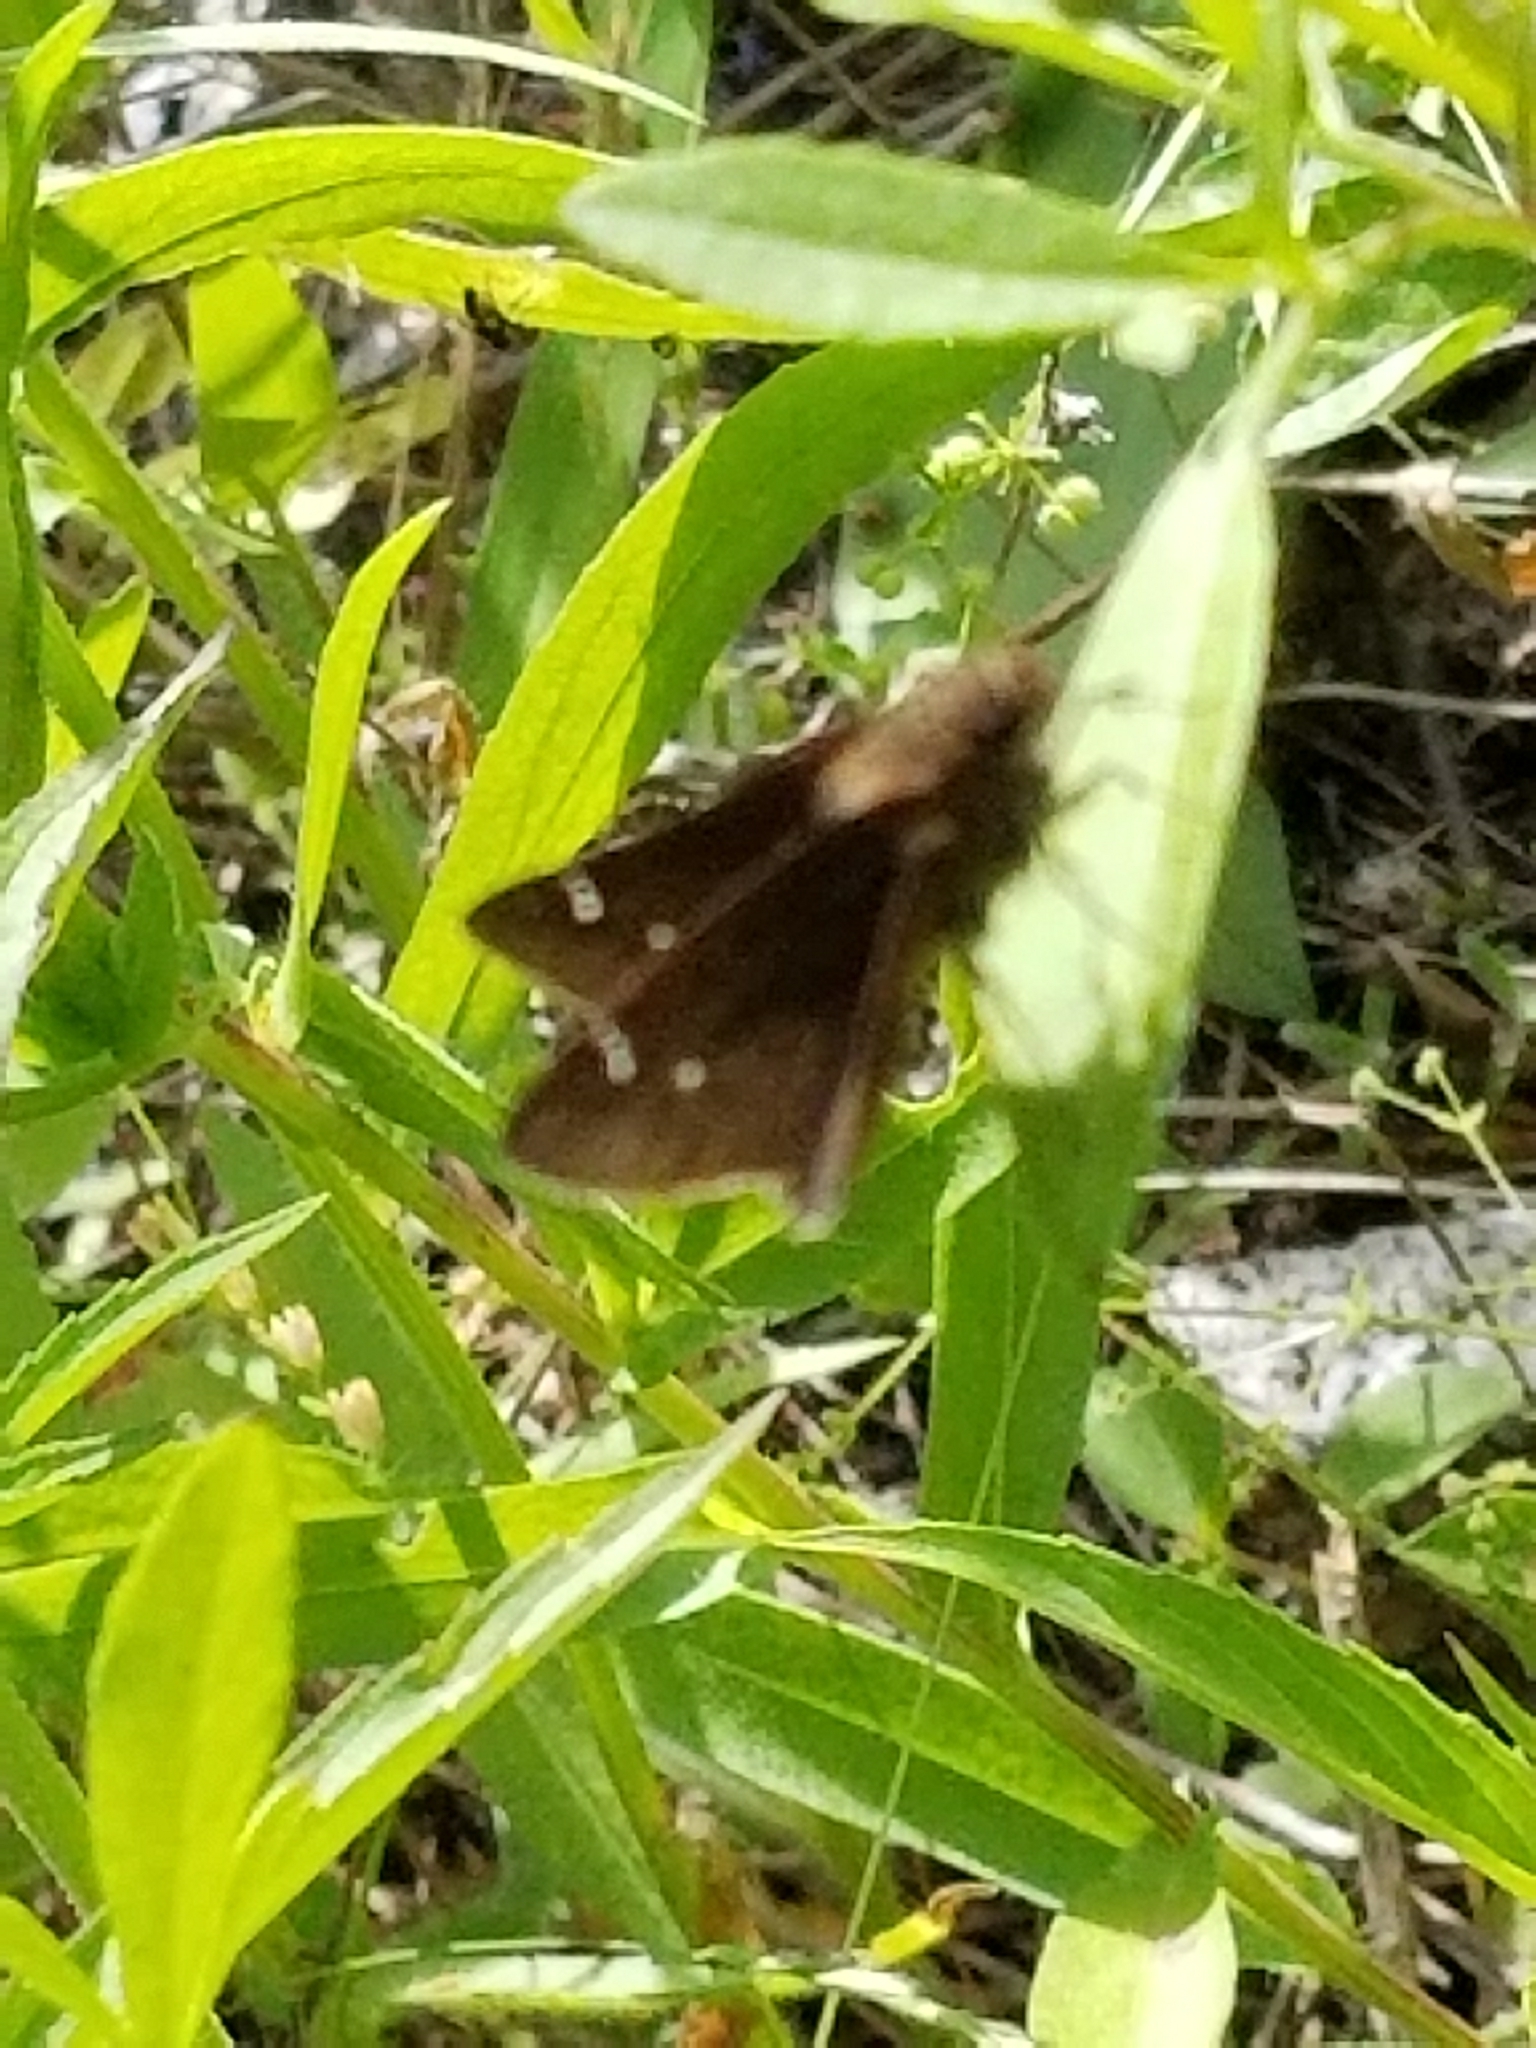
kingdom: Animalia
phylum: Arthropoda
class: Insecta
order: Lepidoptera
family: Hesperiidae
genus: Lerema
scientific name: Lerema accius
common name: Clouded skipper
